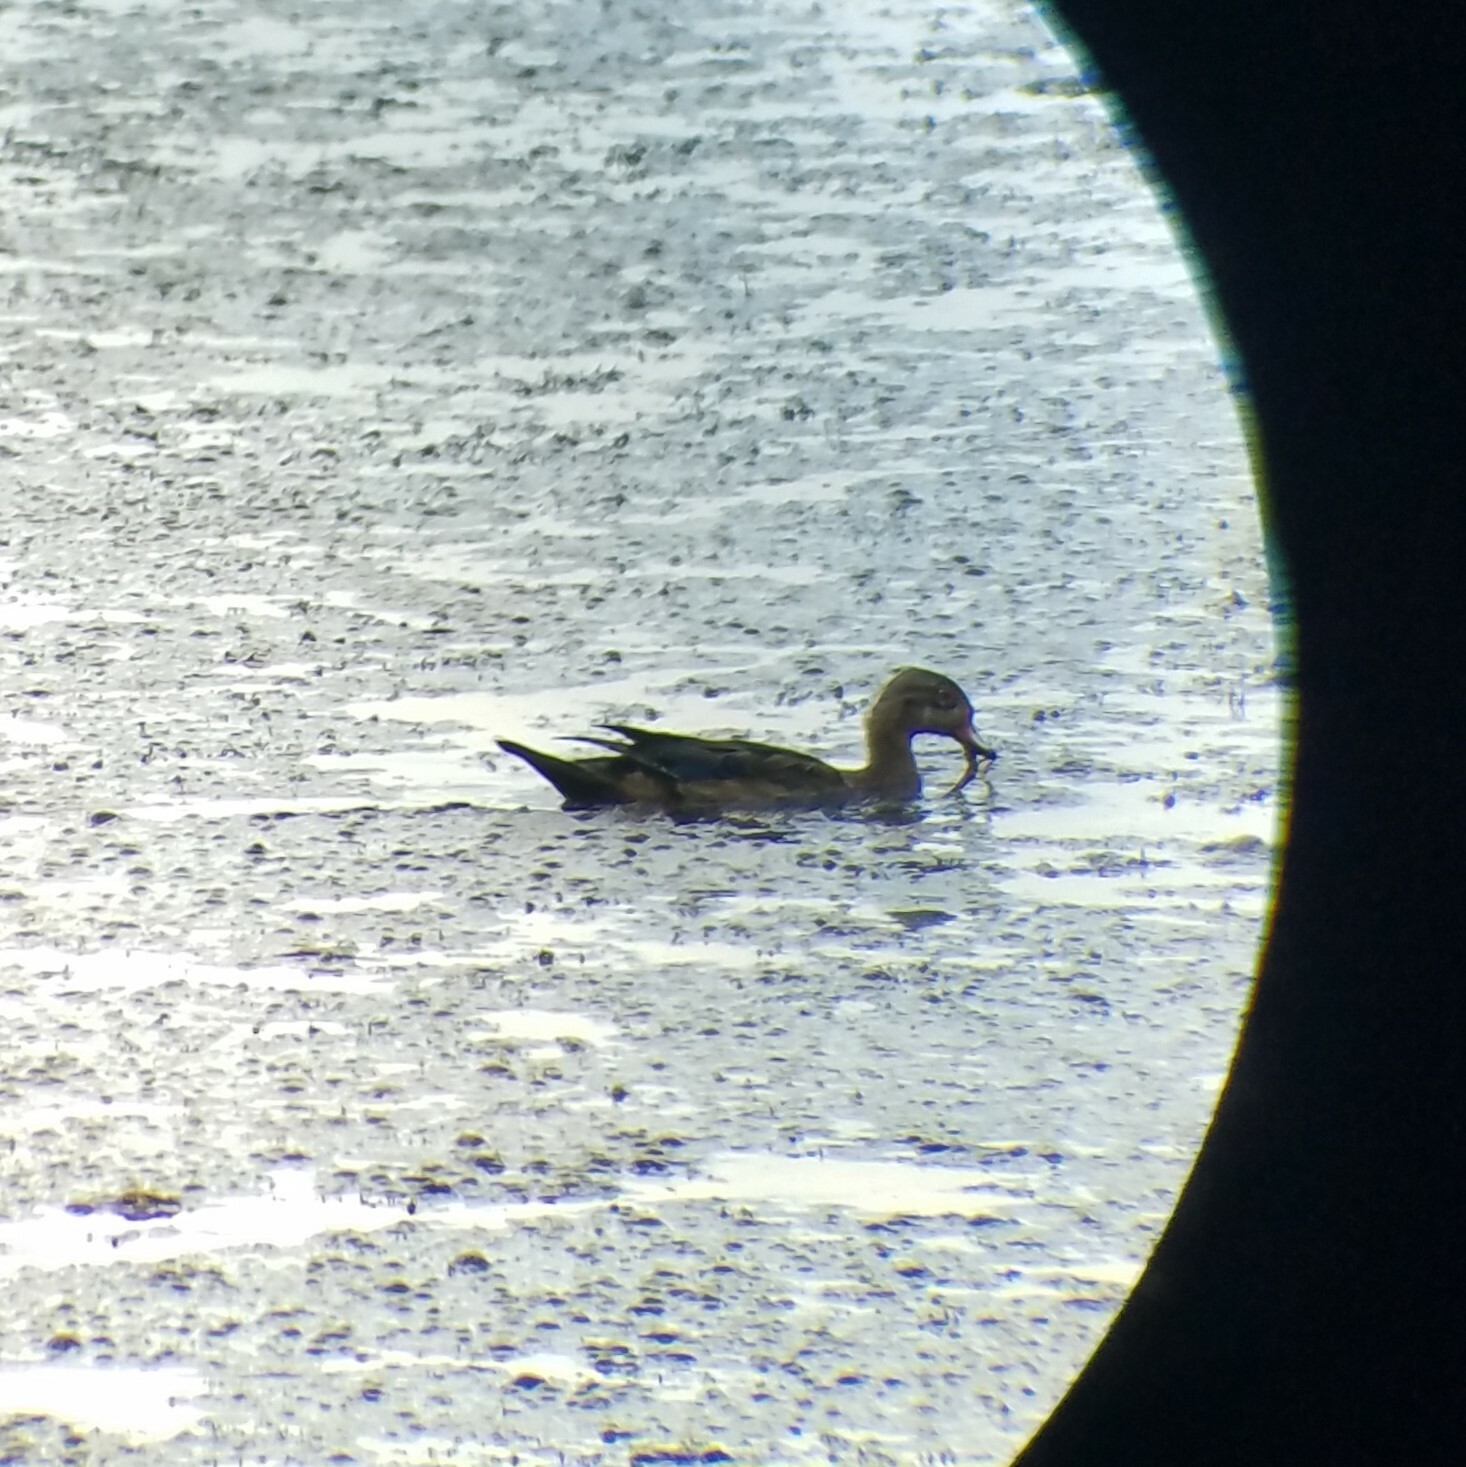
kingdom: Animalia
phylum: Chordata
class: Aves
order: Anseriformes
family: Anatidae
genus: Aix
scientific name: Aix sponsa
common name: Wood duck
